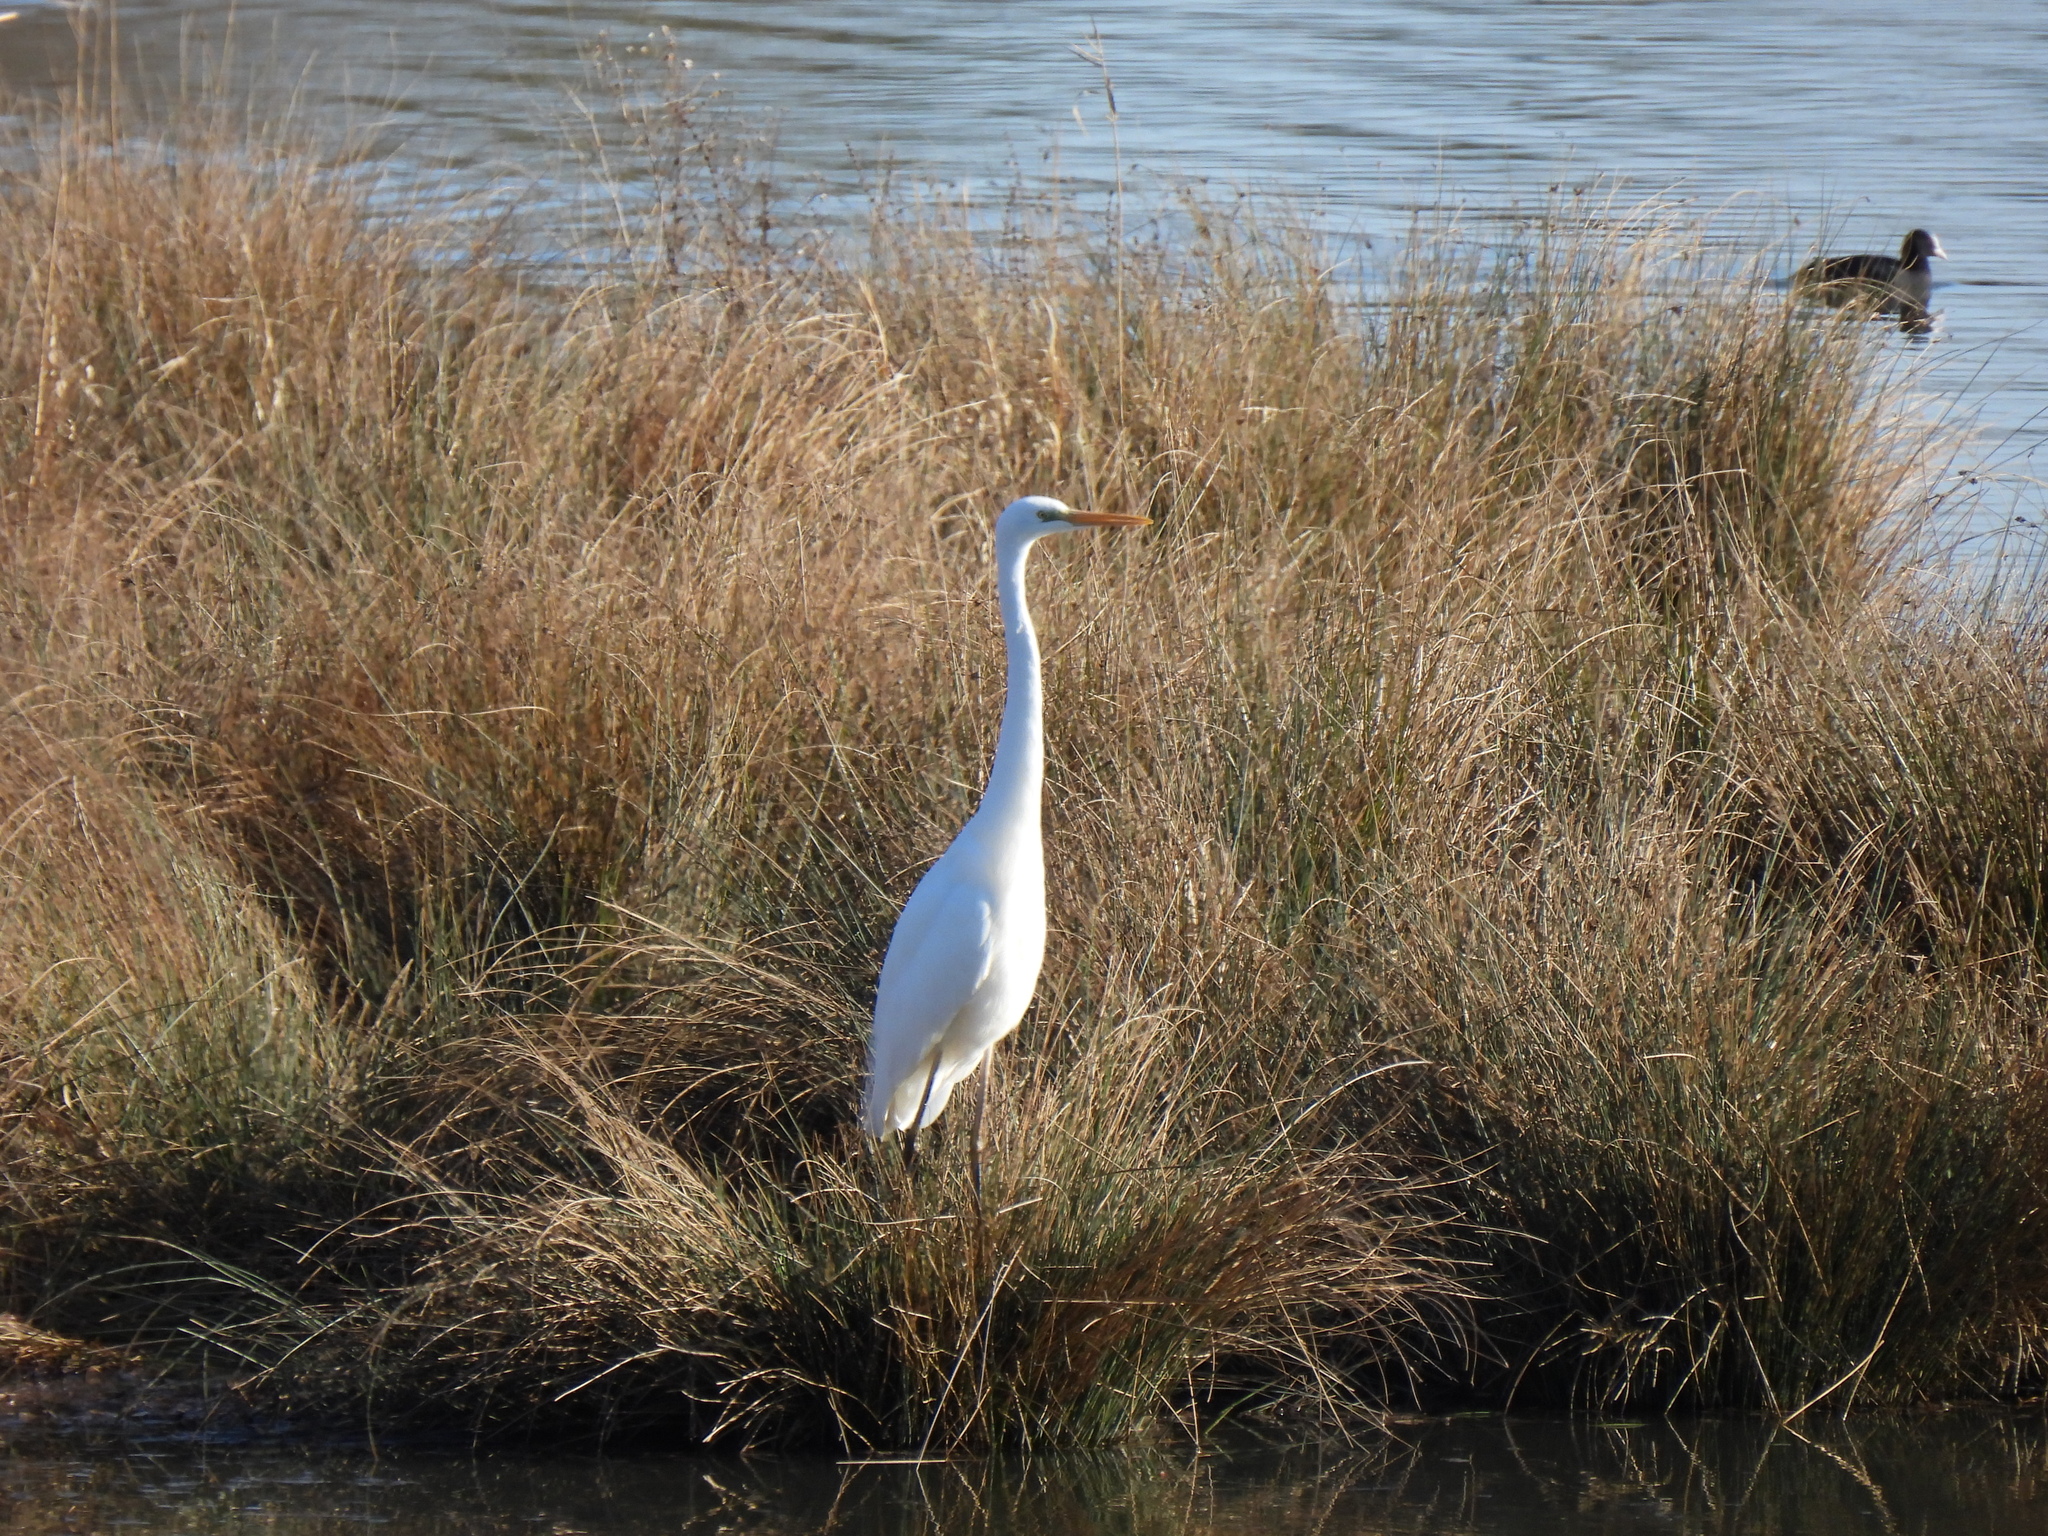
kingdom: Animalia
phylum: Chordata
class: Aves
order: Pelecaniformes
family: Ardeidae
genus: Ardea
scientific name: Ardea alba
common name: Great egret
